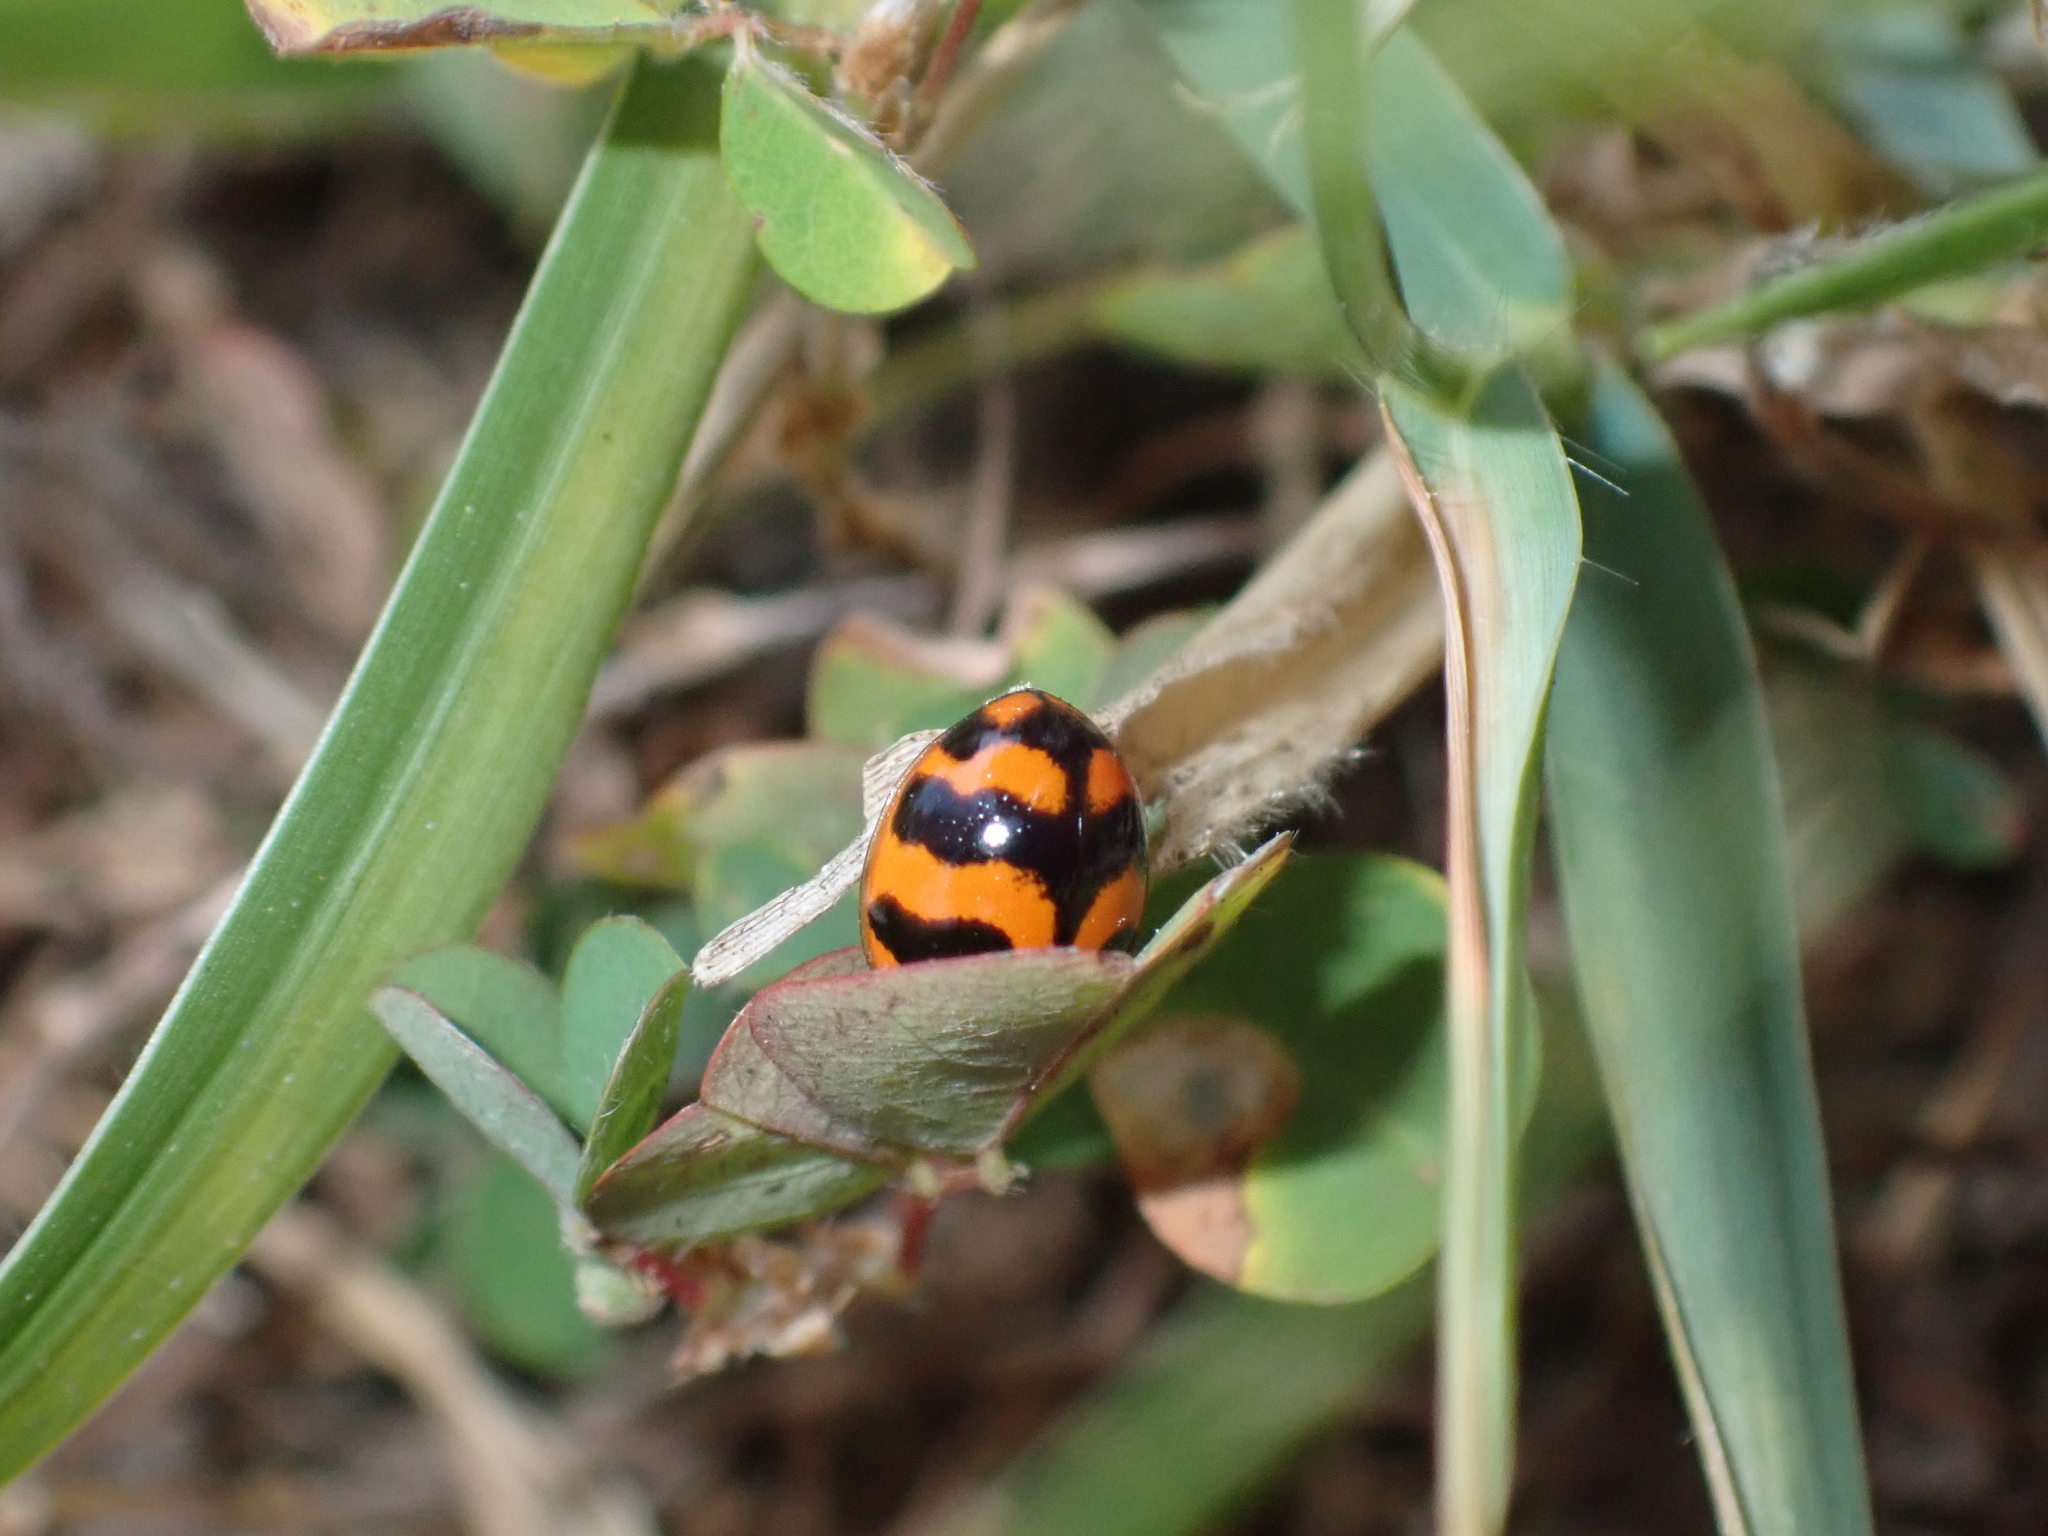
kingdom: Animalia
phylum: Arthropoda
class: Insecta
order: Coleoptera
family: Coccinellidae
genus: Coccinella
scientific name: Coccinella transversalis
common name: Transverse lady beetle
